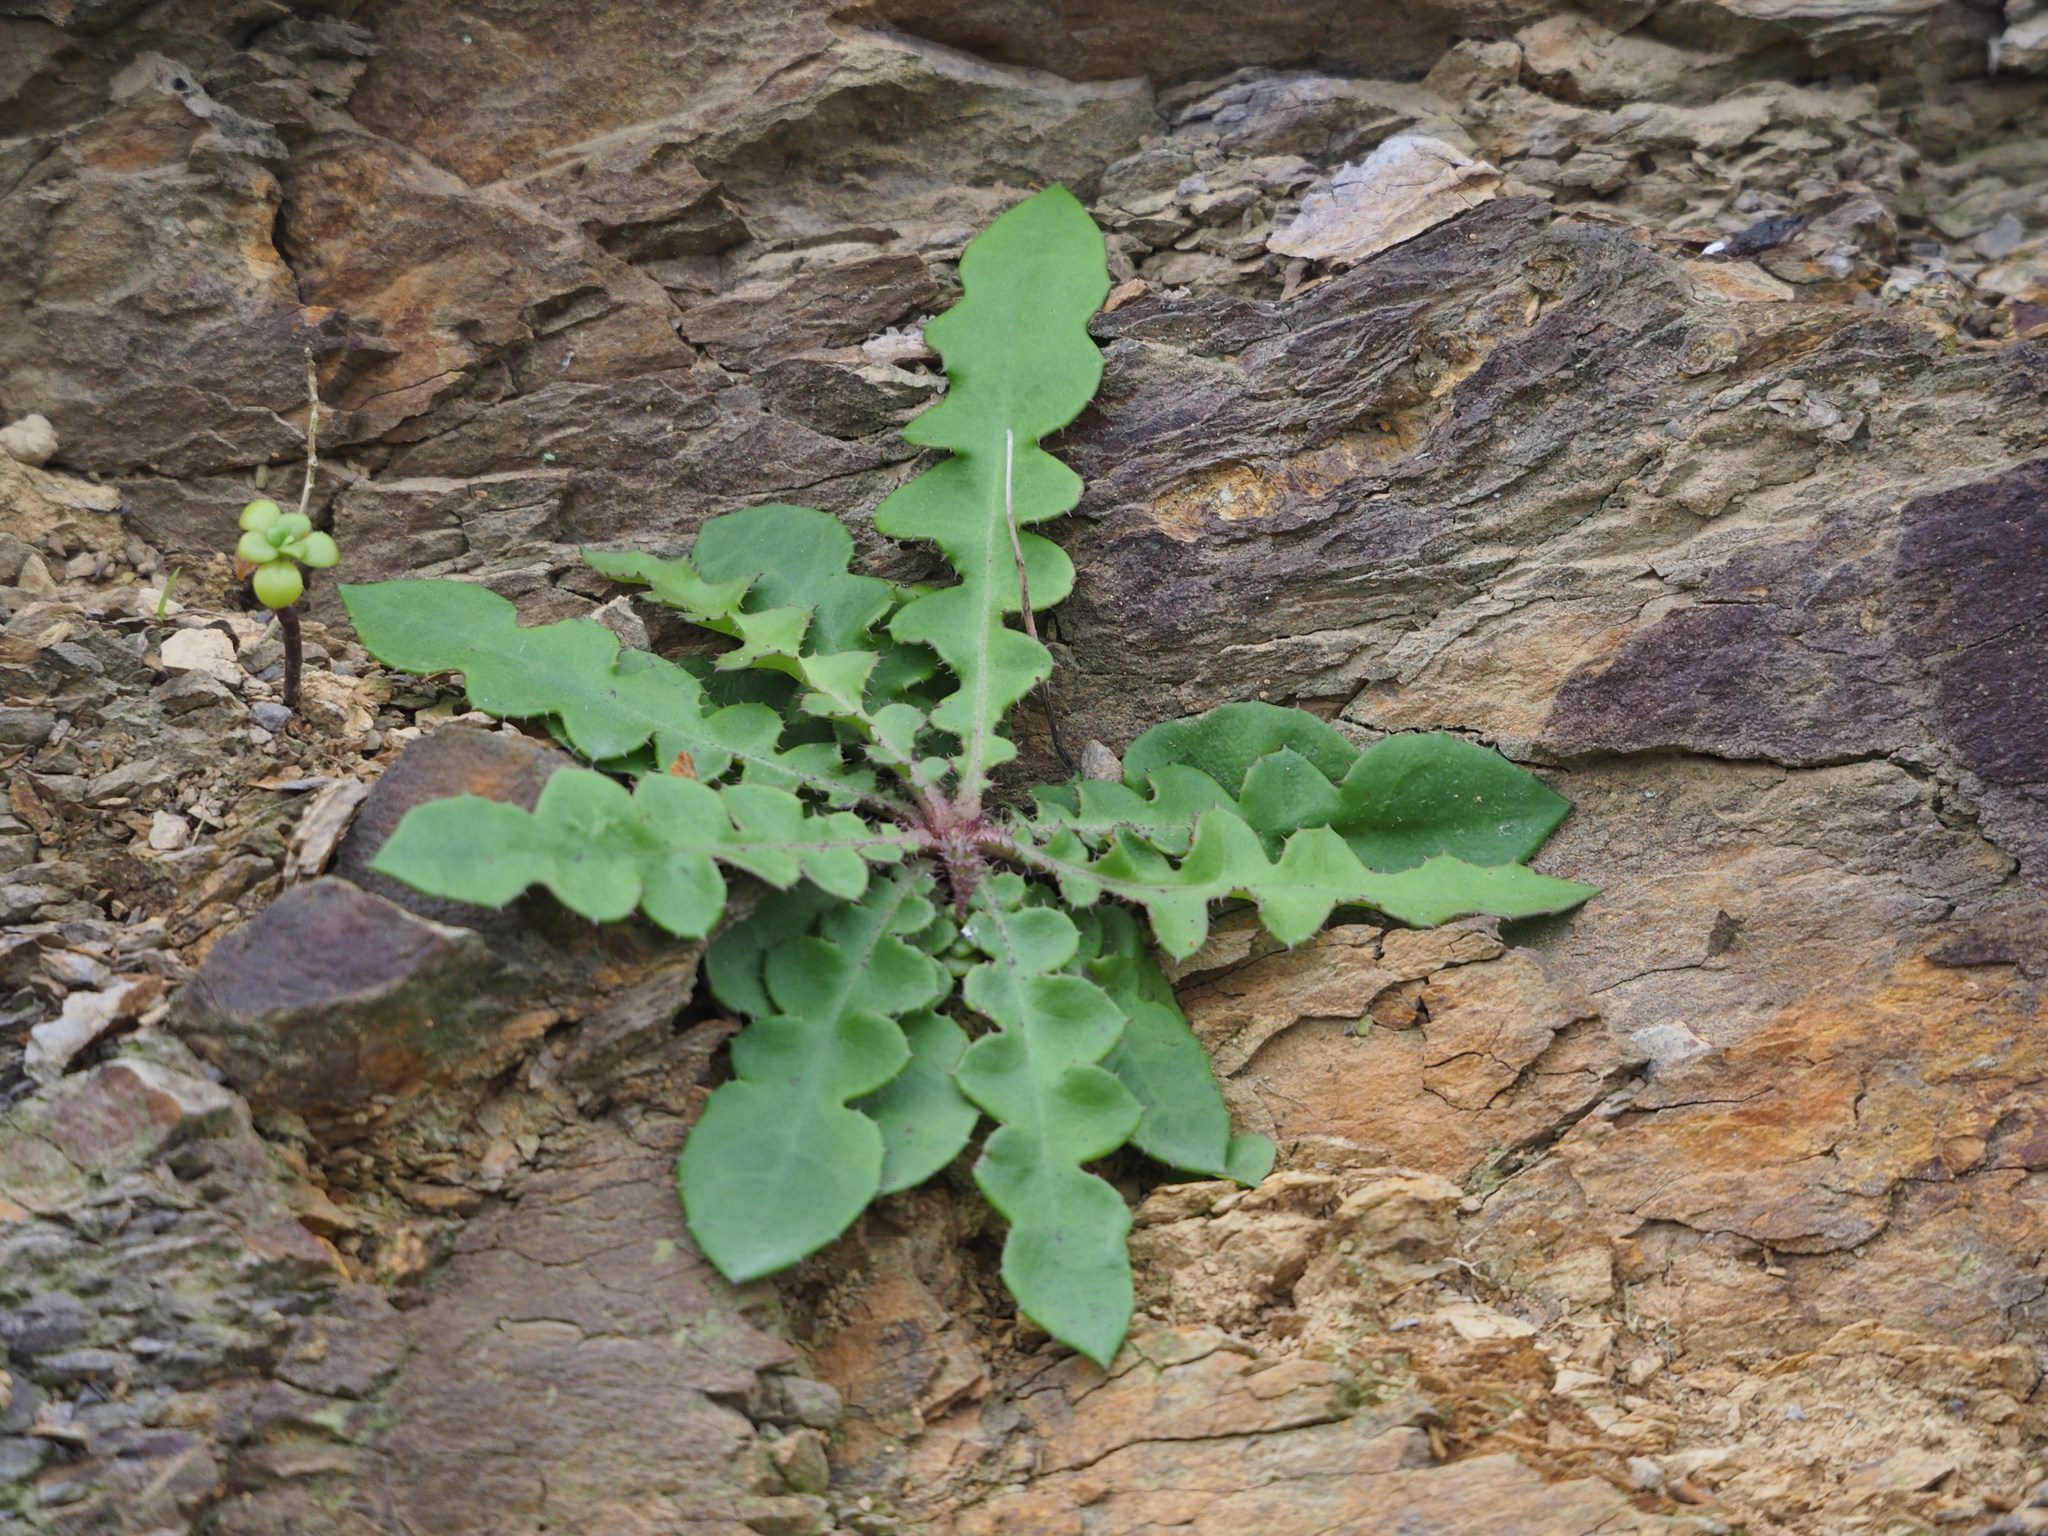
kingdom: Plantae
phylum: Tracheophyta
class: Magnoliopsida
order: Asterales
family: Asteraceae
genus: Ixeridium
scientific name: Ixeridium laevigatum
